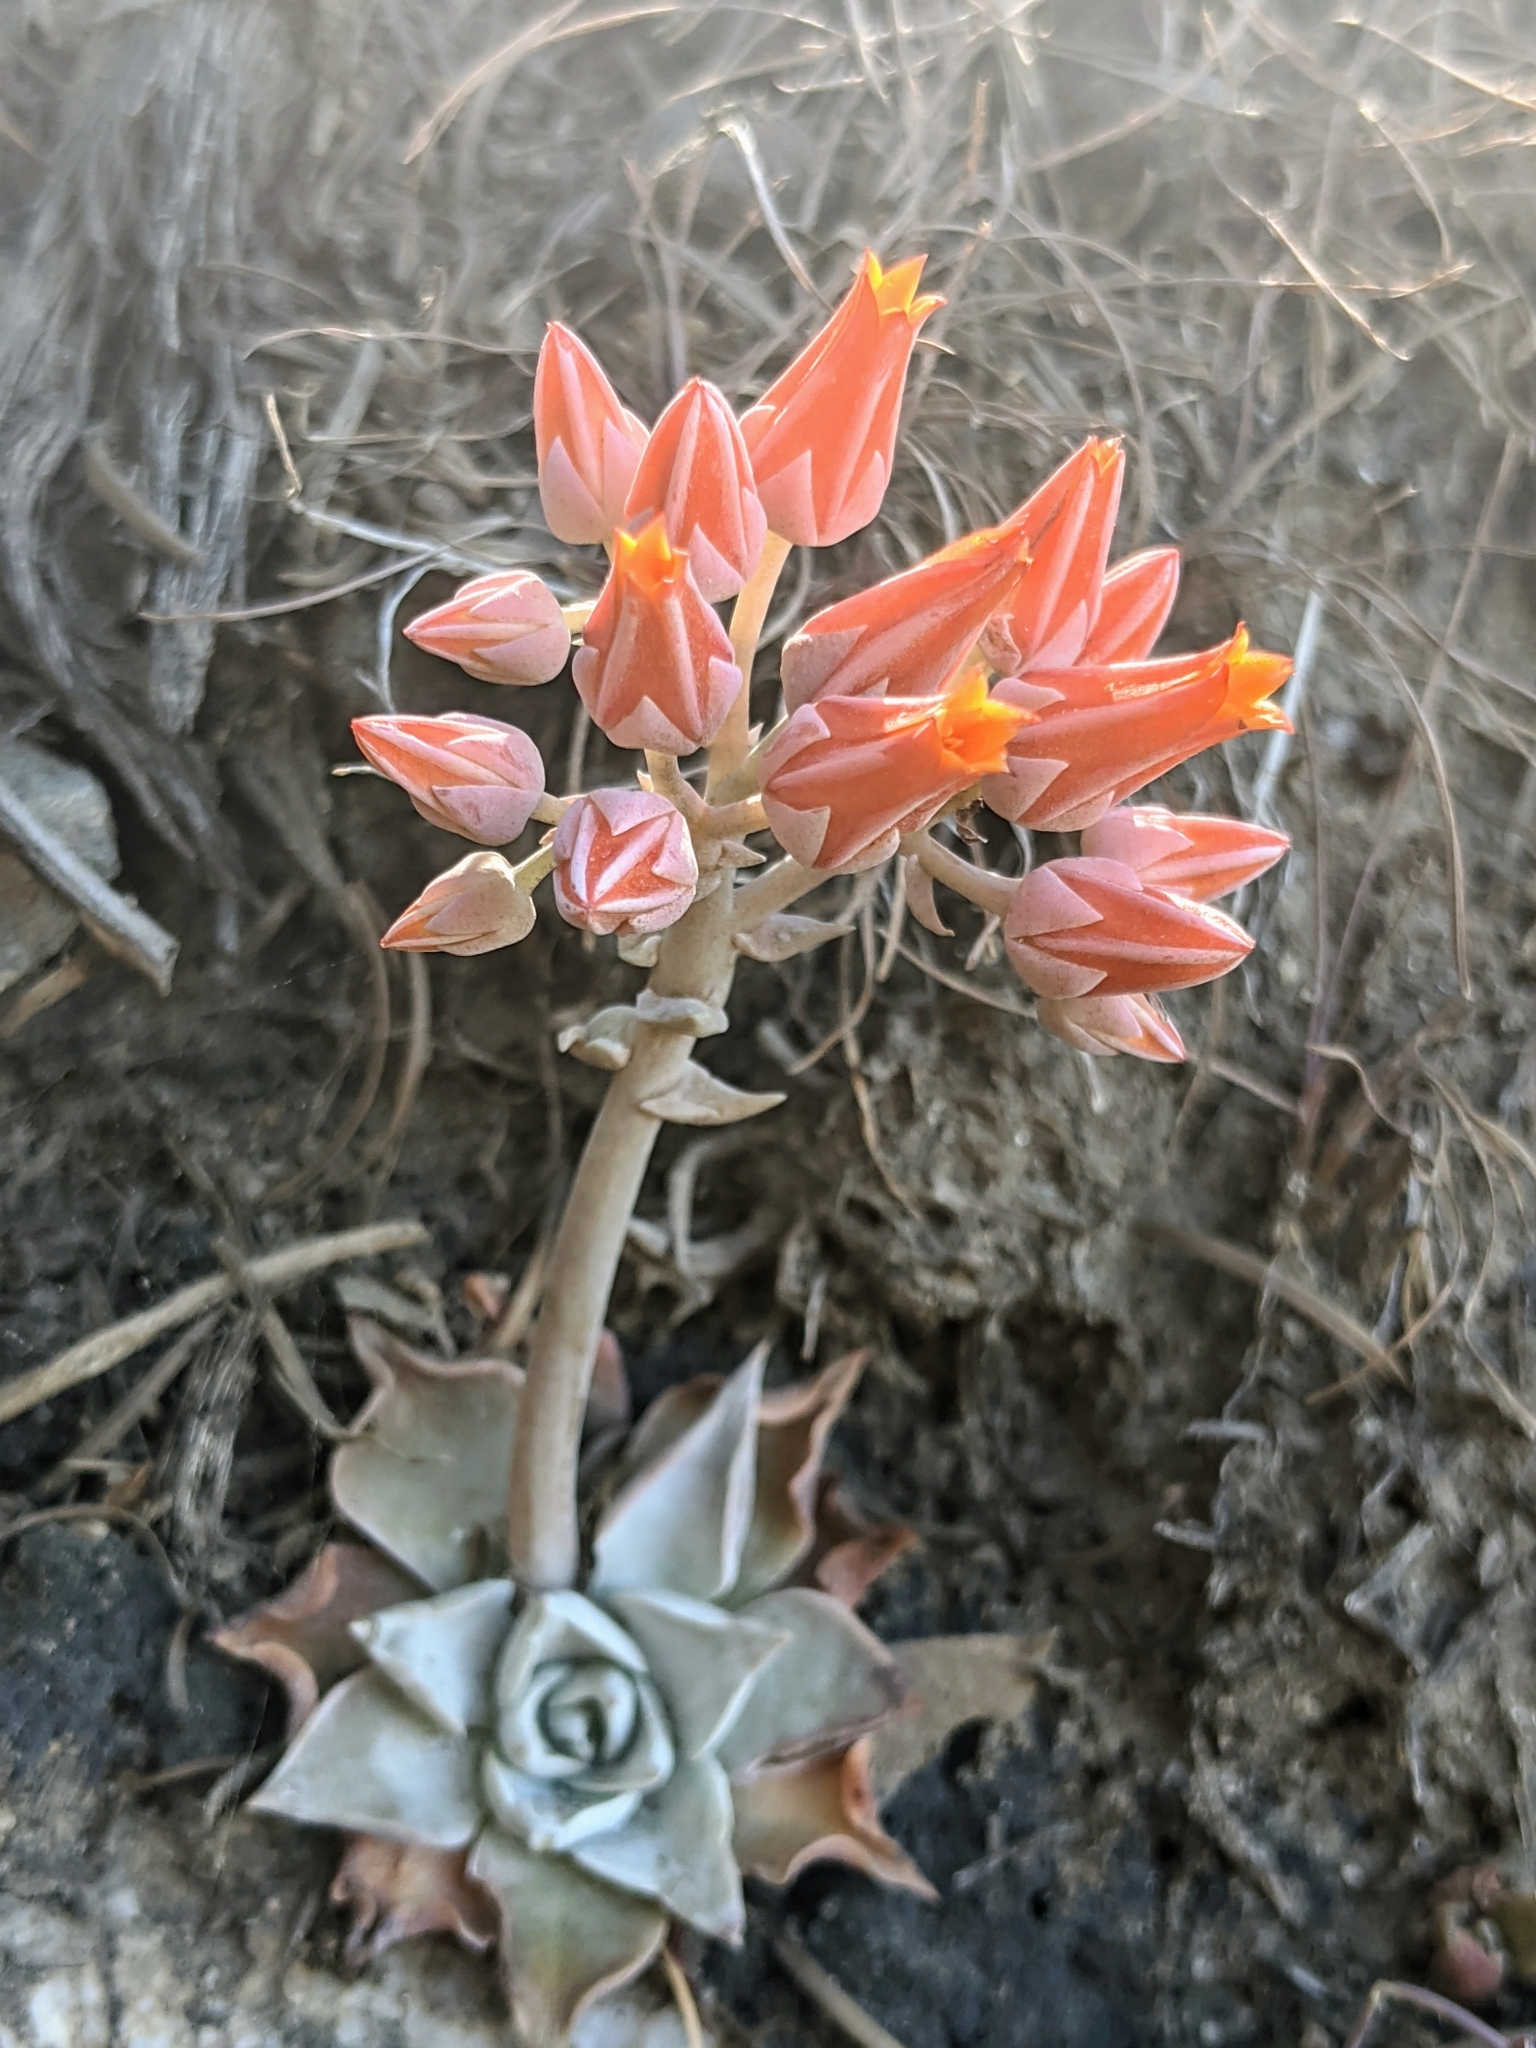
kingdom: Plantae
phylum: Tracheophyta
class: Magnoliopsida
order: Saxifragales
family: Crassulaceae
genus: Dudleya
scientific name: Dudleya cymosa
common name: Canyon dudleya
